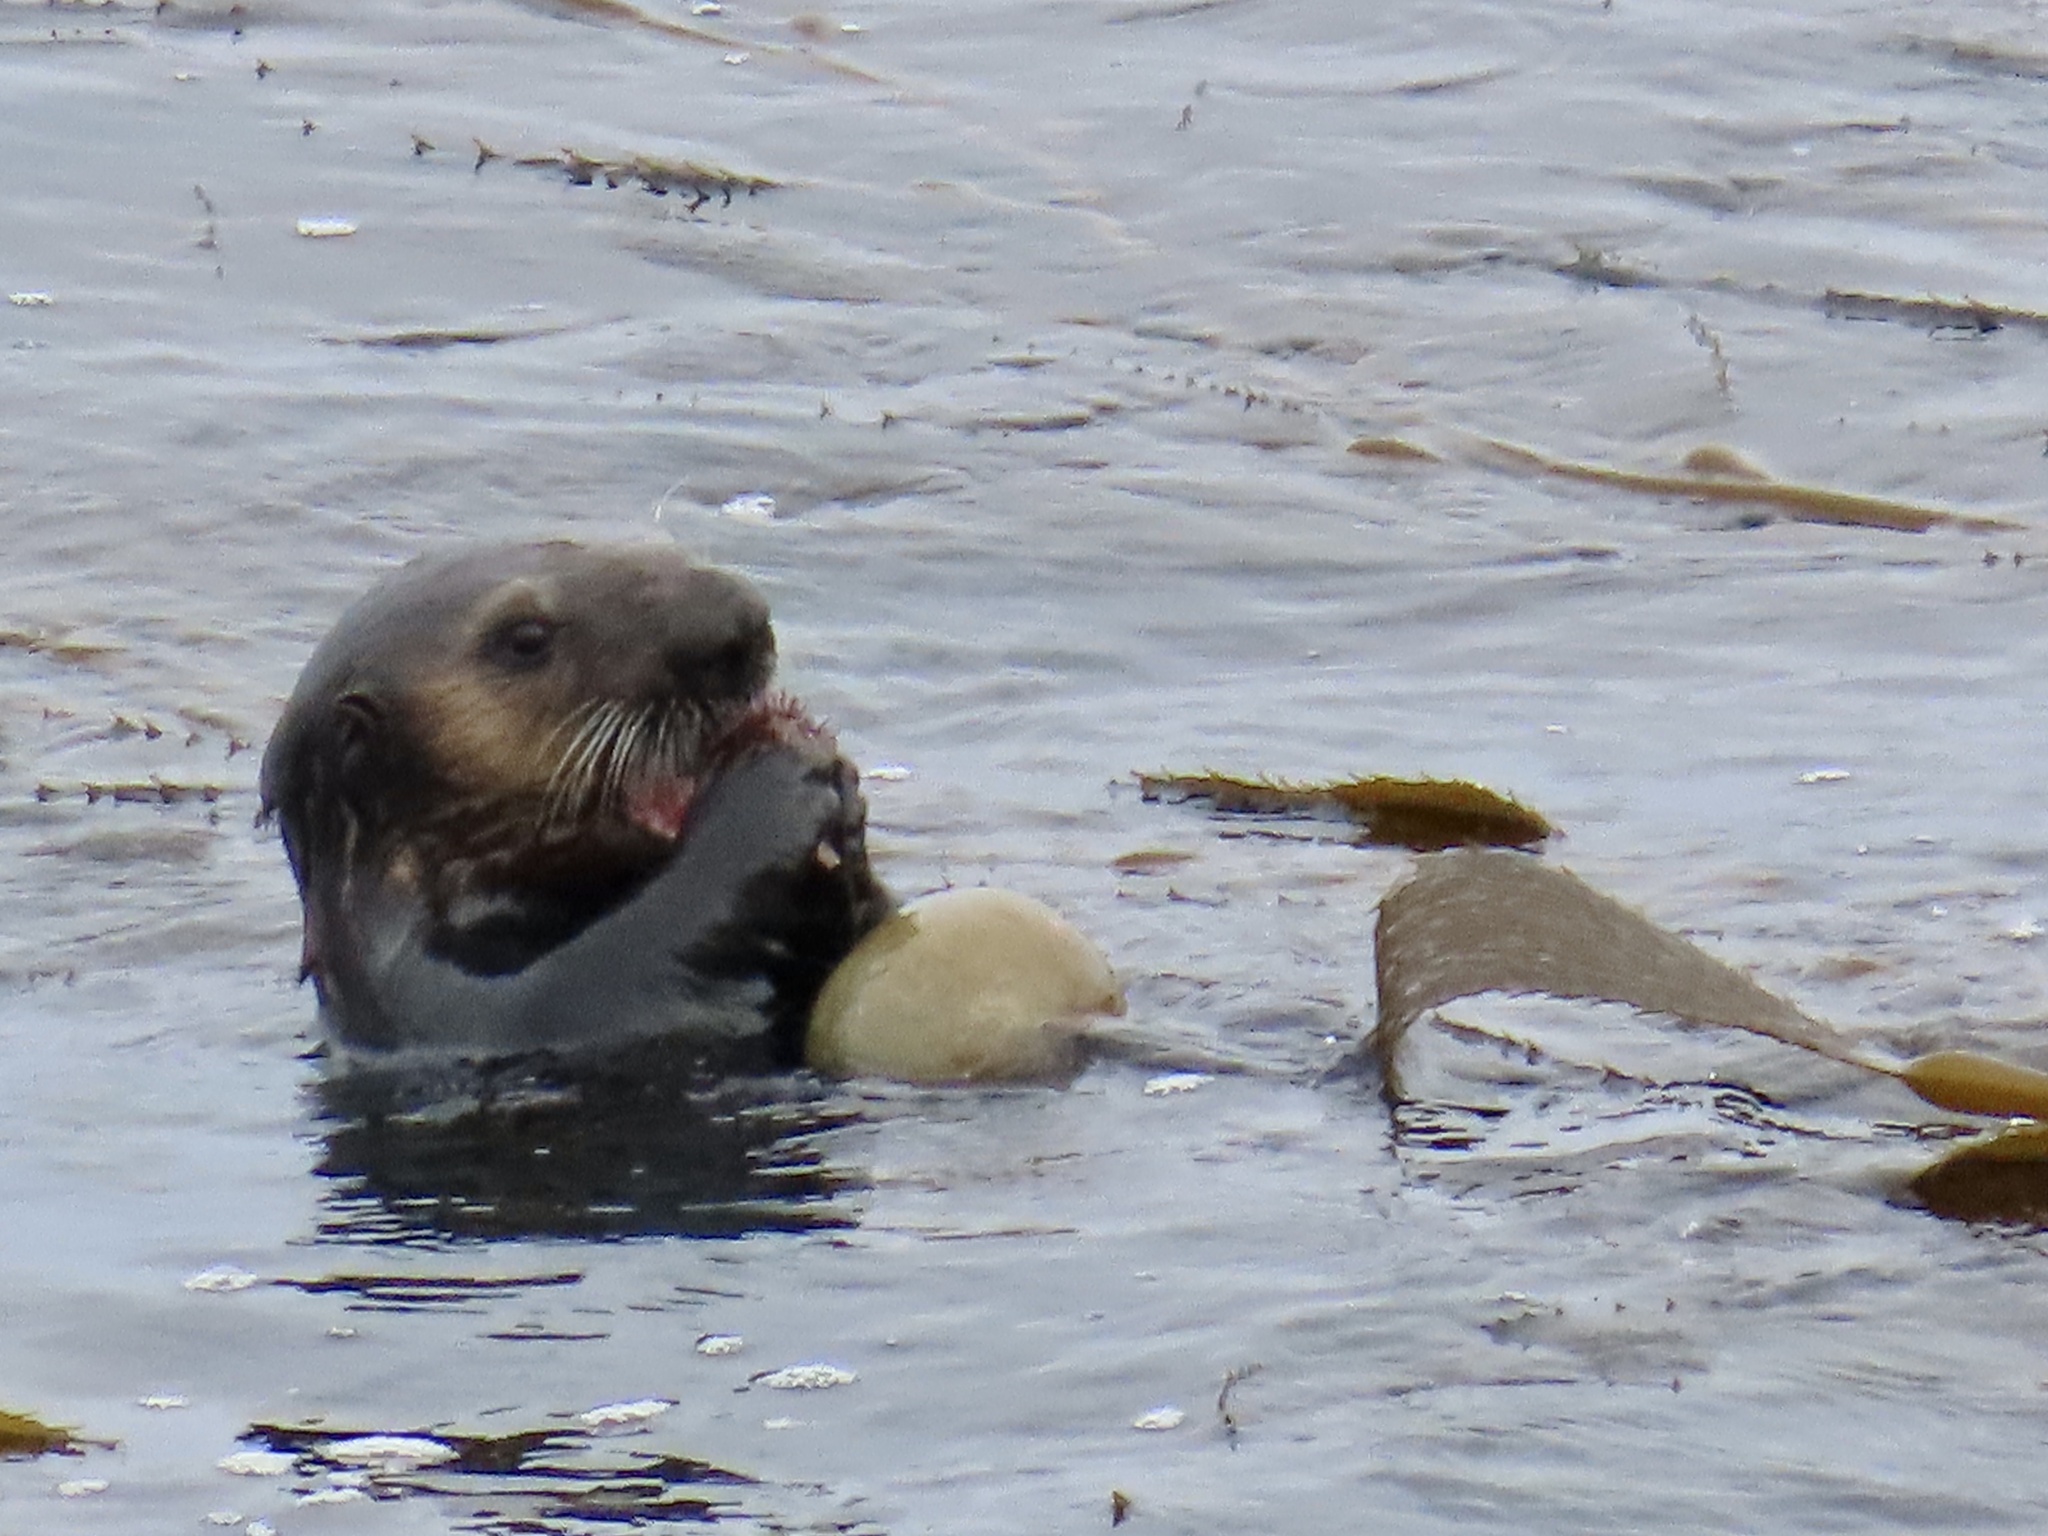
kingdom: Animalia
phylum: Chordata
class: Mammalia
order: Carnivora
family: Mustelidae
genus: Enhydra
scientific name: Enhydra lutris
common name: Sea otter
